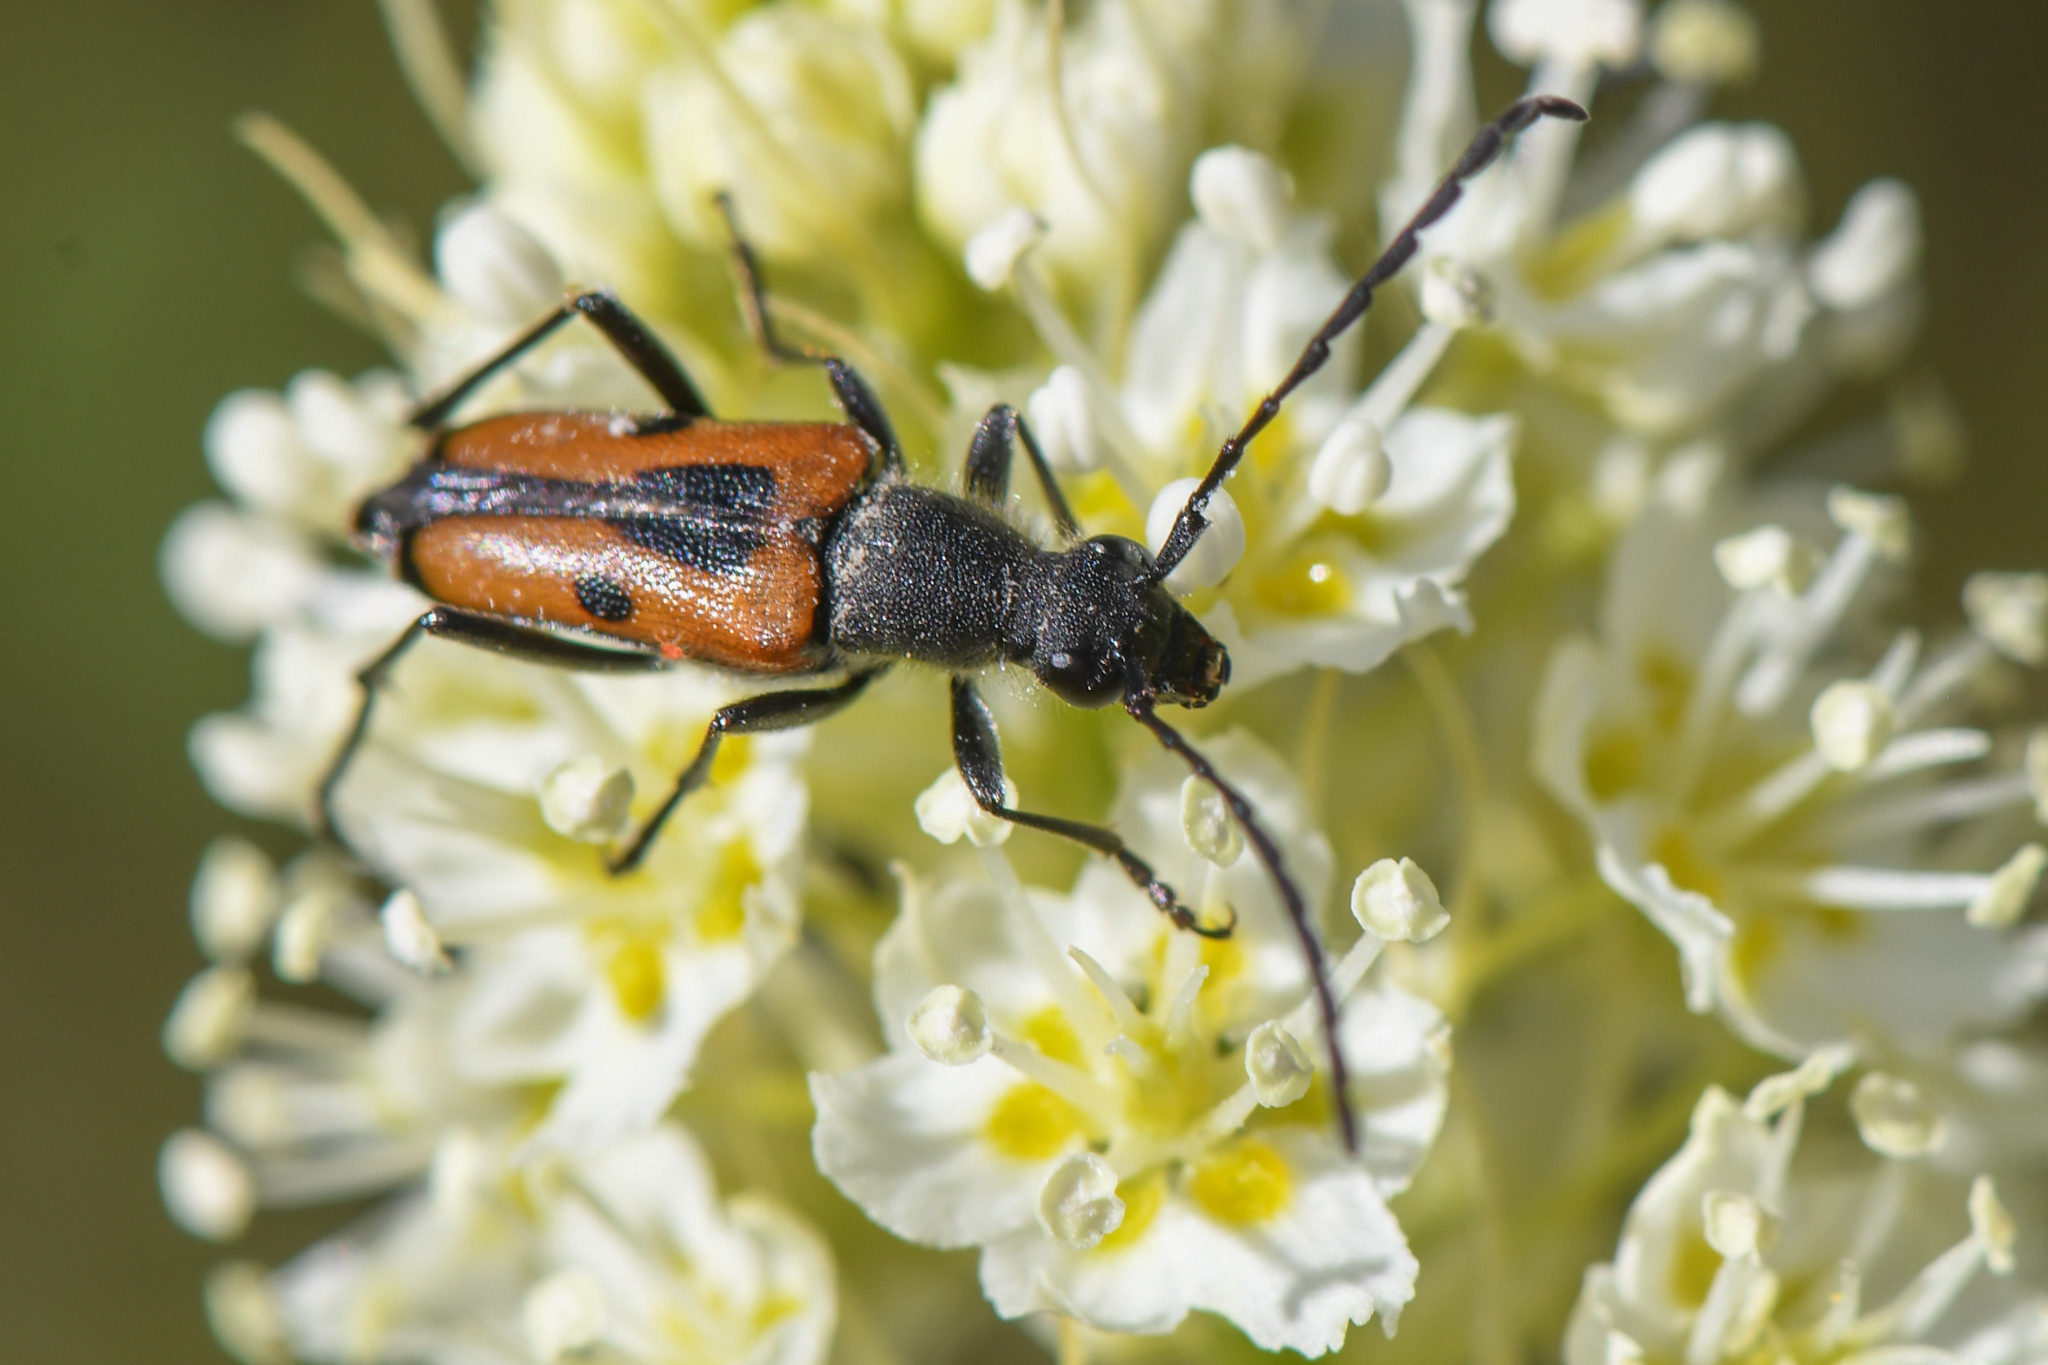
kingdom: Animalia
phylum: Arthropoda
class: Insecta
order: Coleoptera
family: Cerambycidae
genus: Anastrangalia
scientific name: Anastrangalia laetifica
